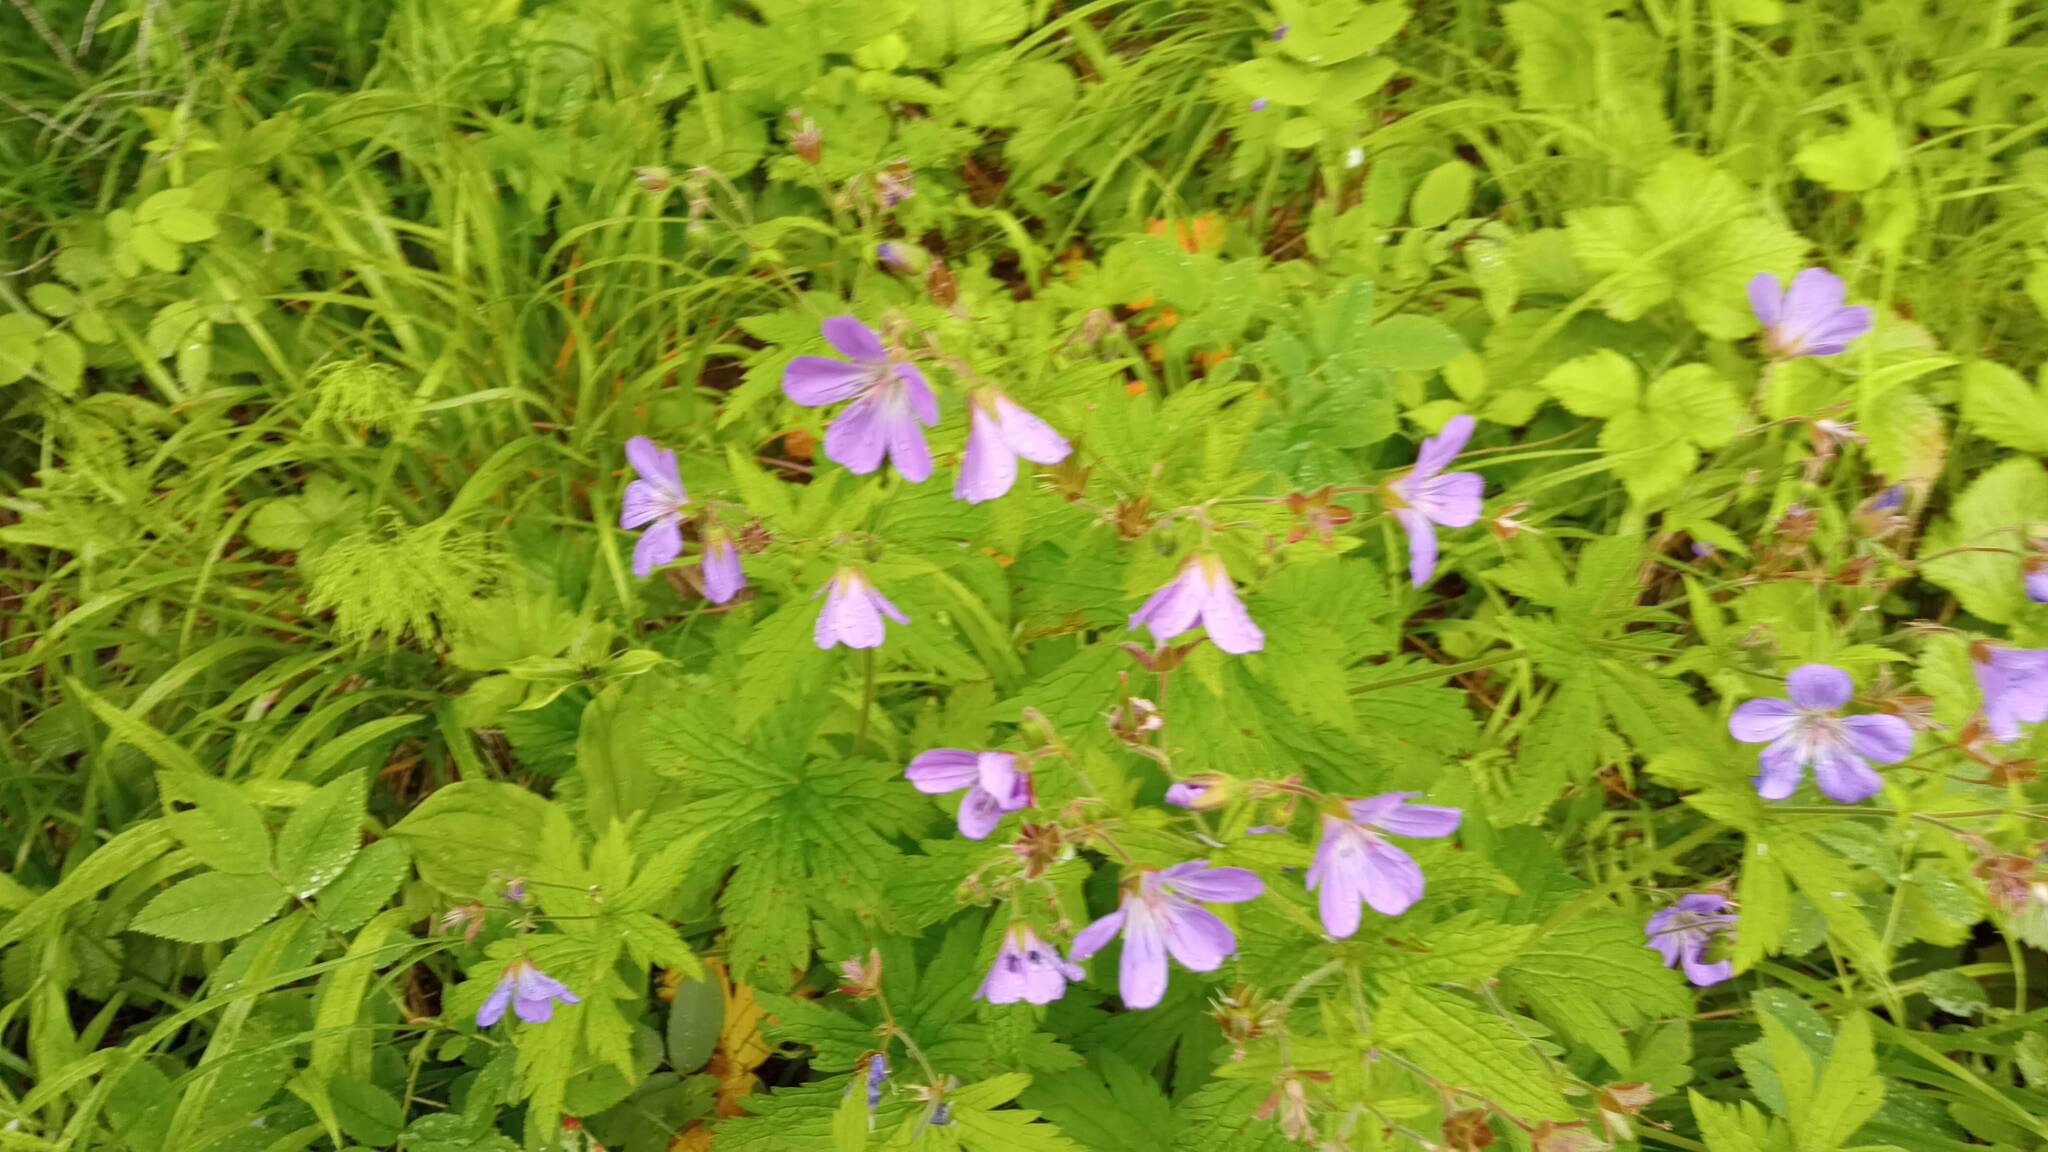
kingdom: Plantae
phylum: Tracheophyta
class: Magnoliopsida
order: Geraniales
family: Geraniaceae
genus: Geranium
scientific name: Geranium sylvaticum
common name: Wood crane's-bill
